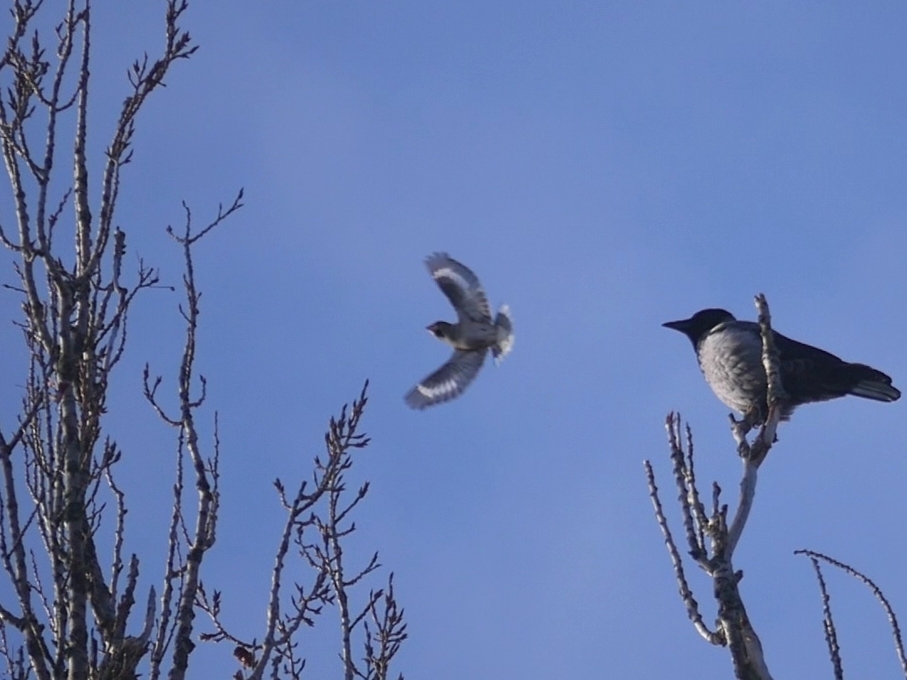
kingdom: Animalia
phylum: Chordata
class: Aves
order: Passeriformes
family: Fringillidae
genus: Coccothraustes
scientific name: Coccothraustes coccothraustes
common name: Hawfinch
